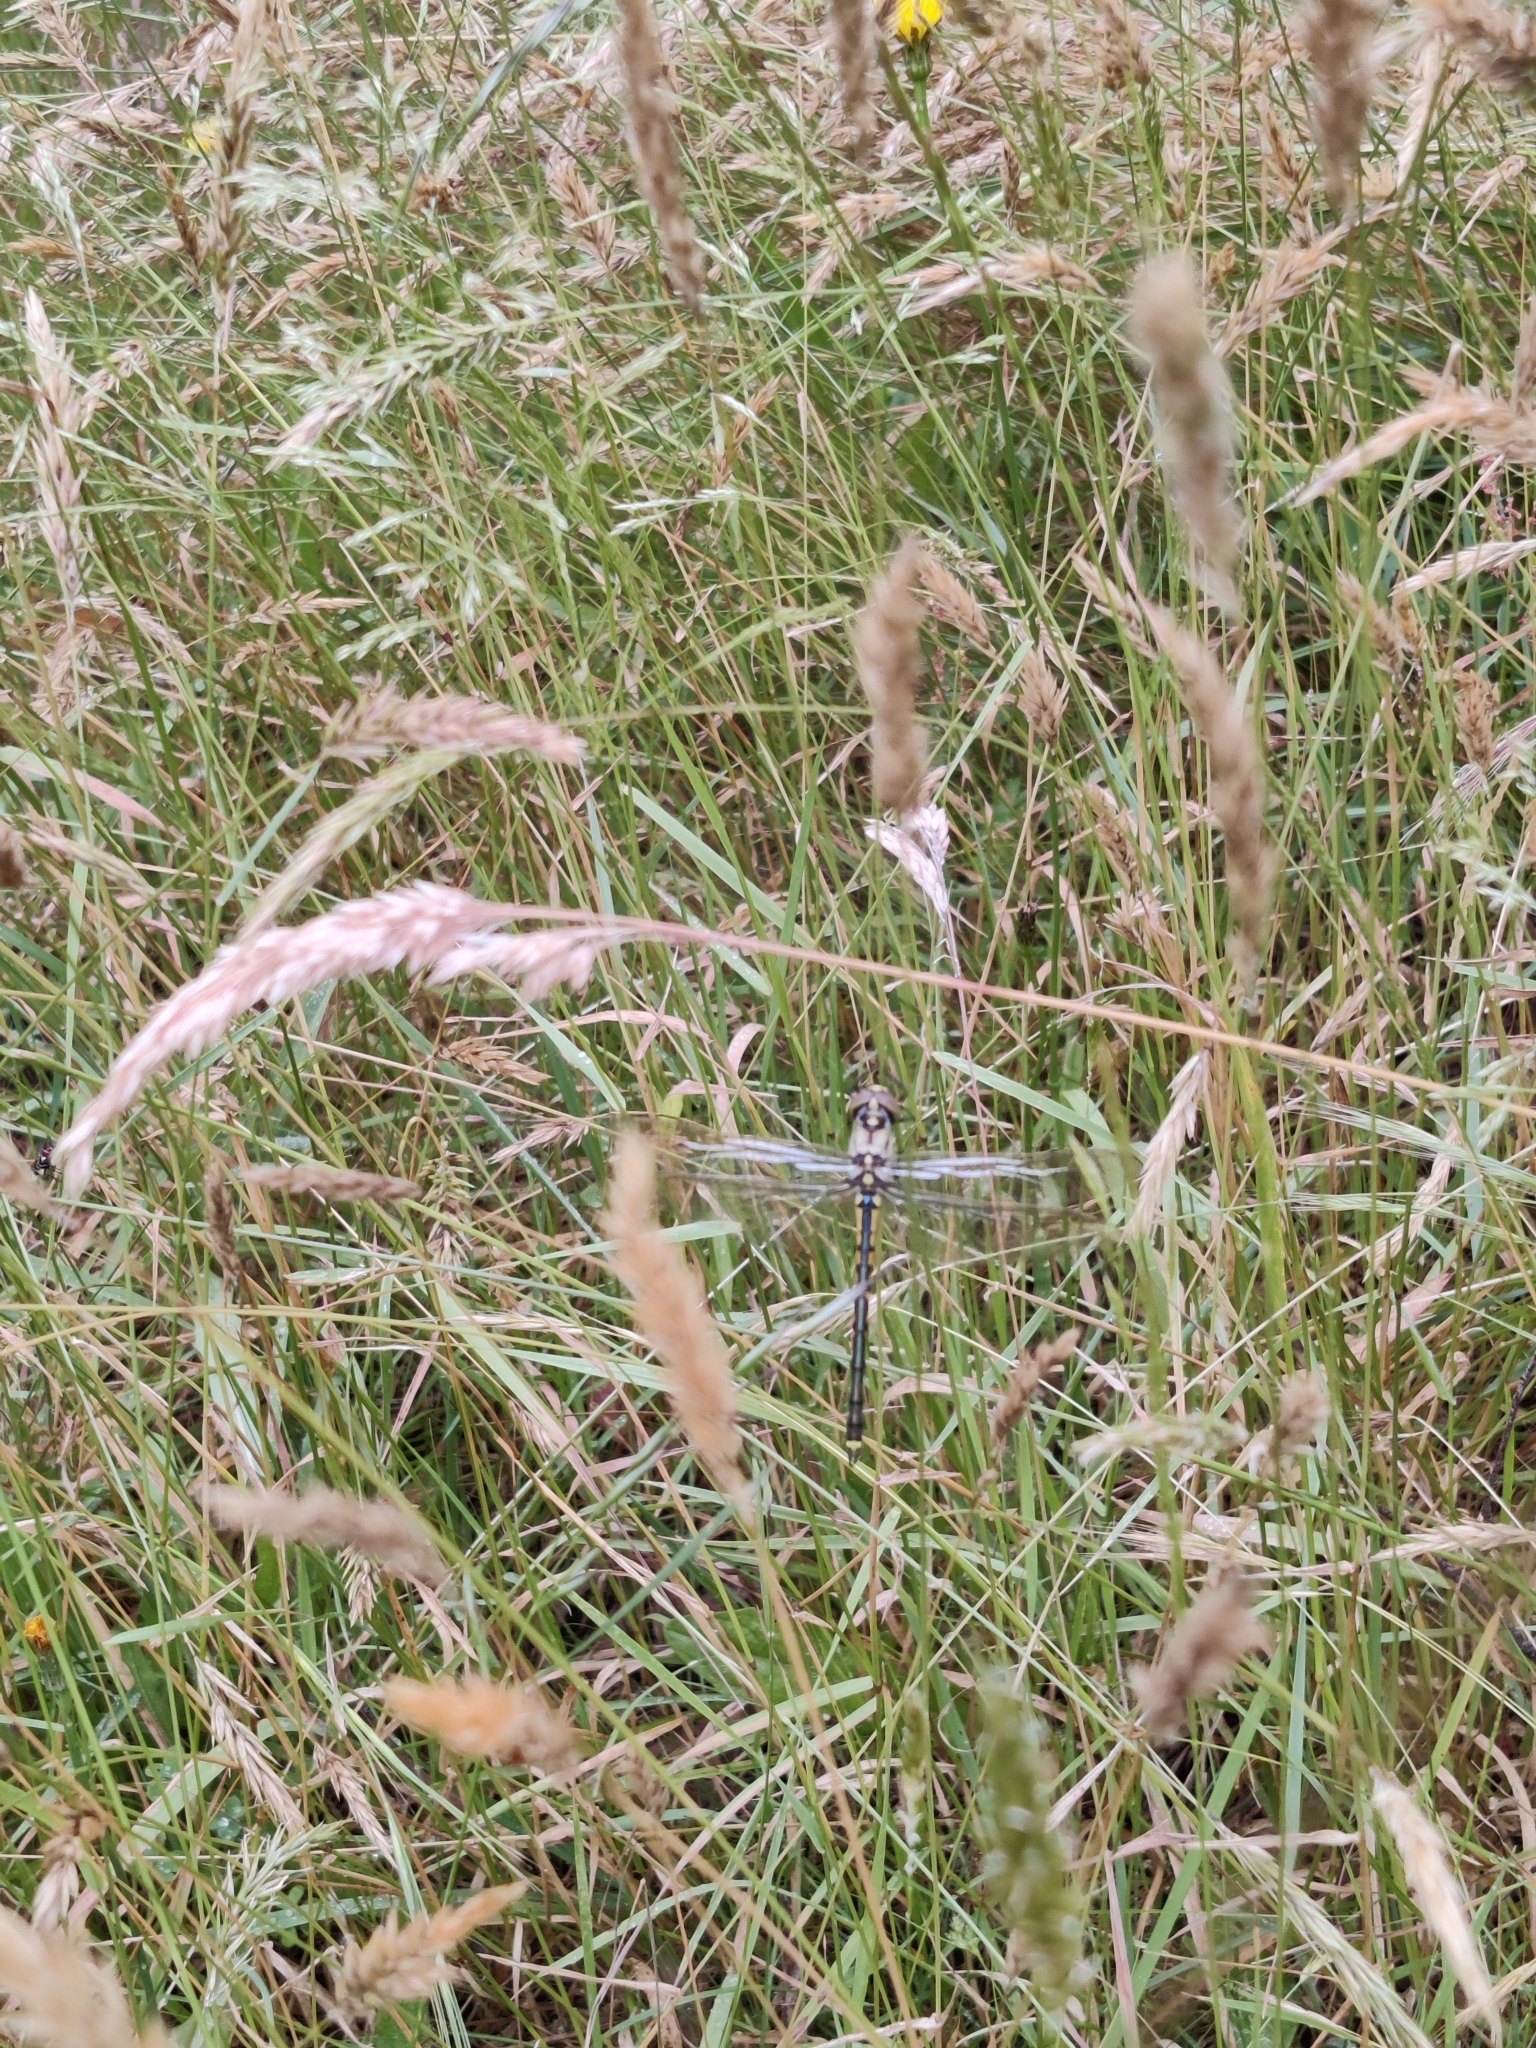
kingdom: Animalia
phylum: Arthropoda
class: Insecta
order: Odonata
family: Corduliidae
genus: Hemicordulia
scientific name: Hemicordulia tau
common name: Tau emerald
